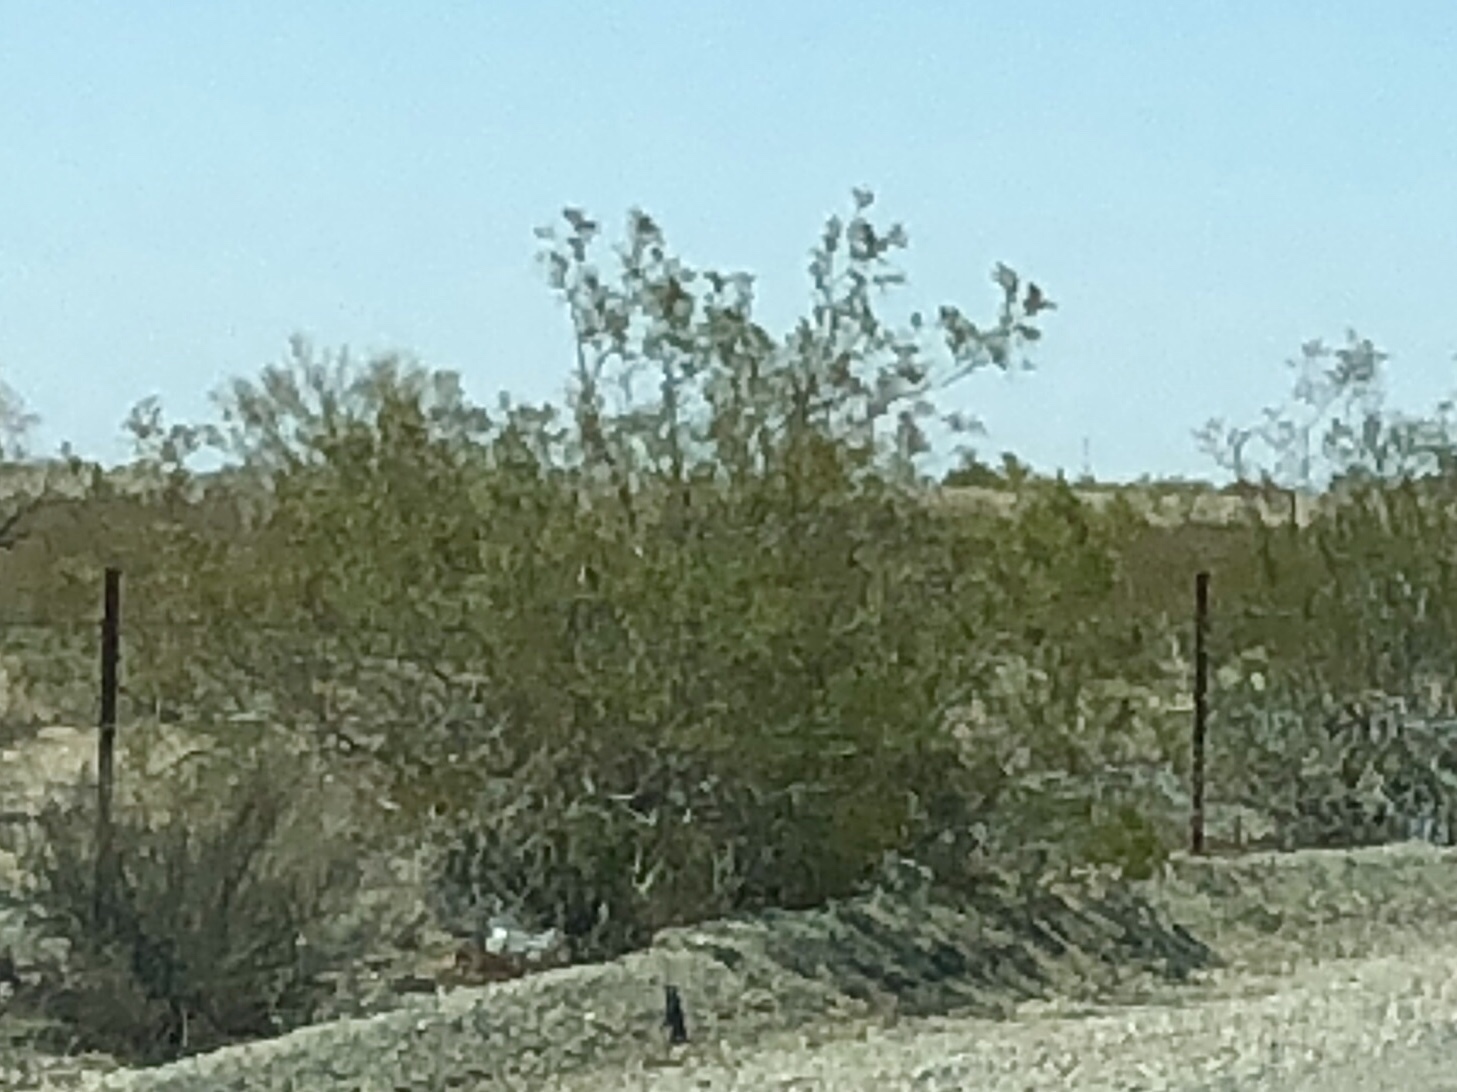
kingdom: Plantae
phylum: Tracheophyta
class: Magnoliopsida
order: Zygophyllales
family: Zygophyllaceae
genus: Larrea
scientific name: Larrea tridentata
